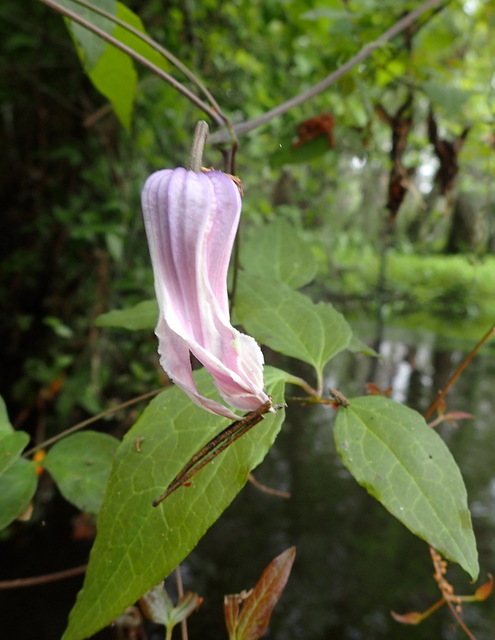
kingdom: Plantae
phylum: Tracheophyta
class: Magnoliopsida
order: Ranunculales
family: Ranunculaceae
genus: Clematis
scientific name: Clematis crispa
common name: Curly clematis
